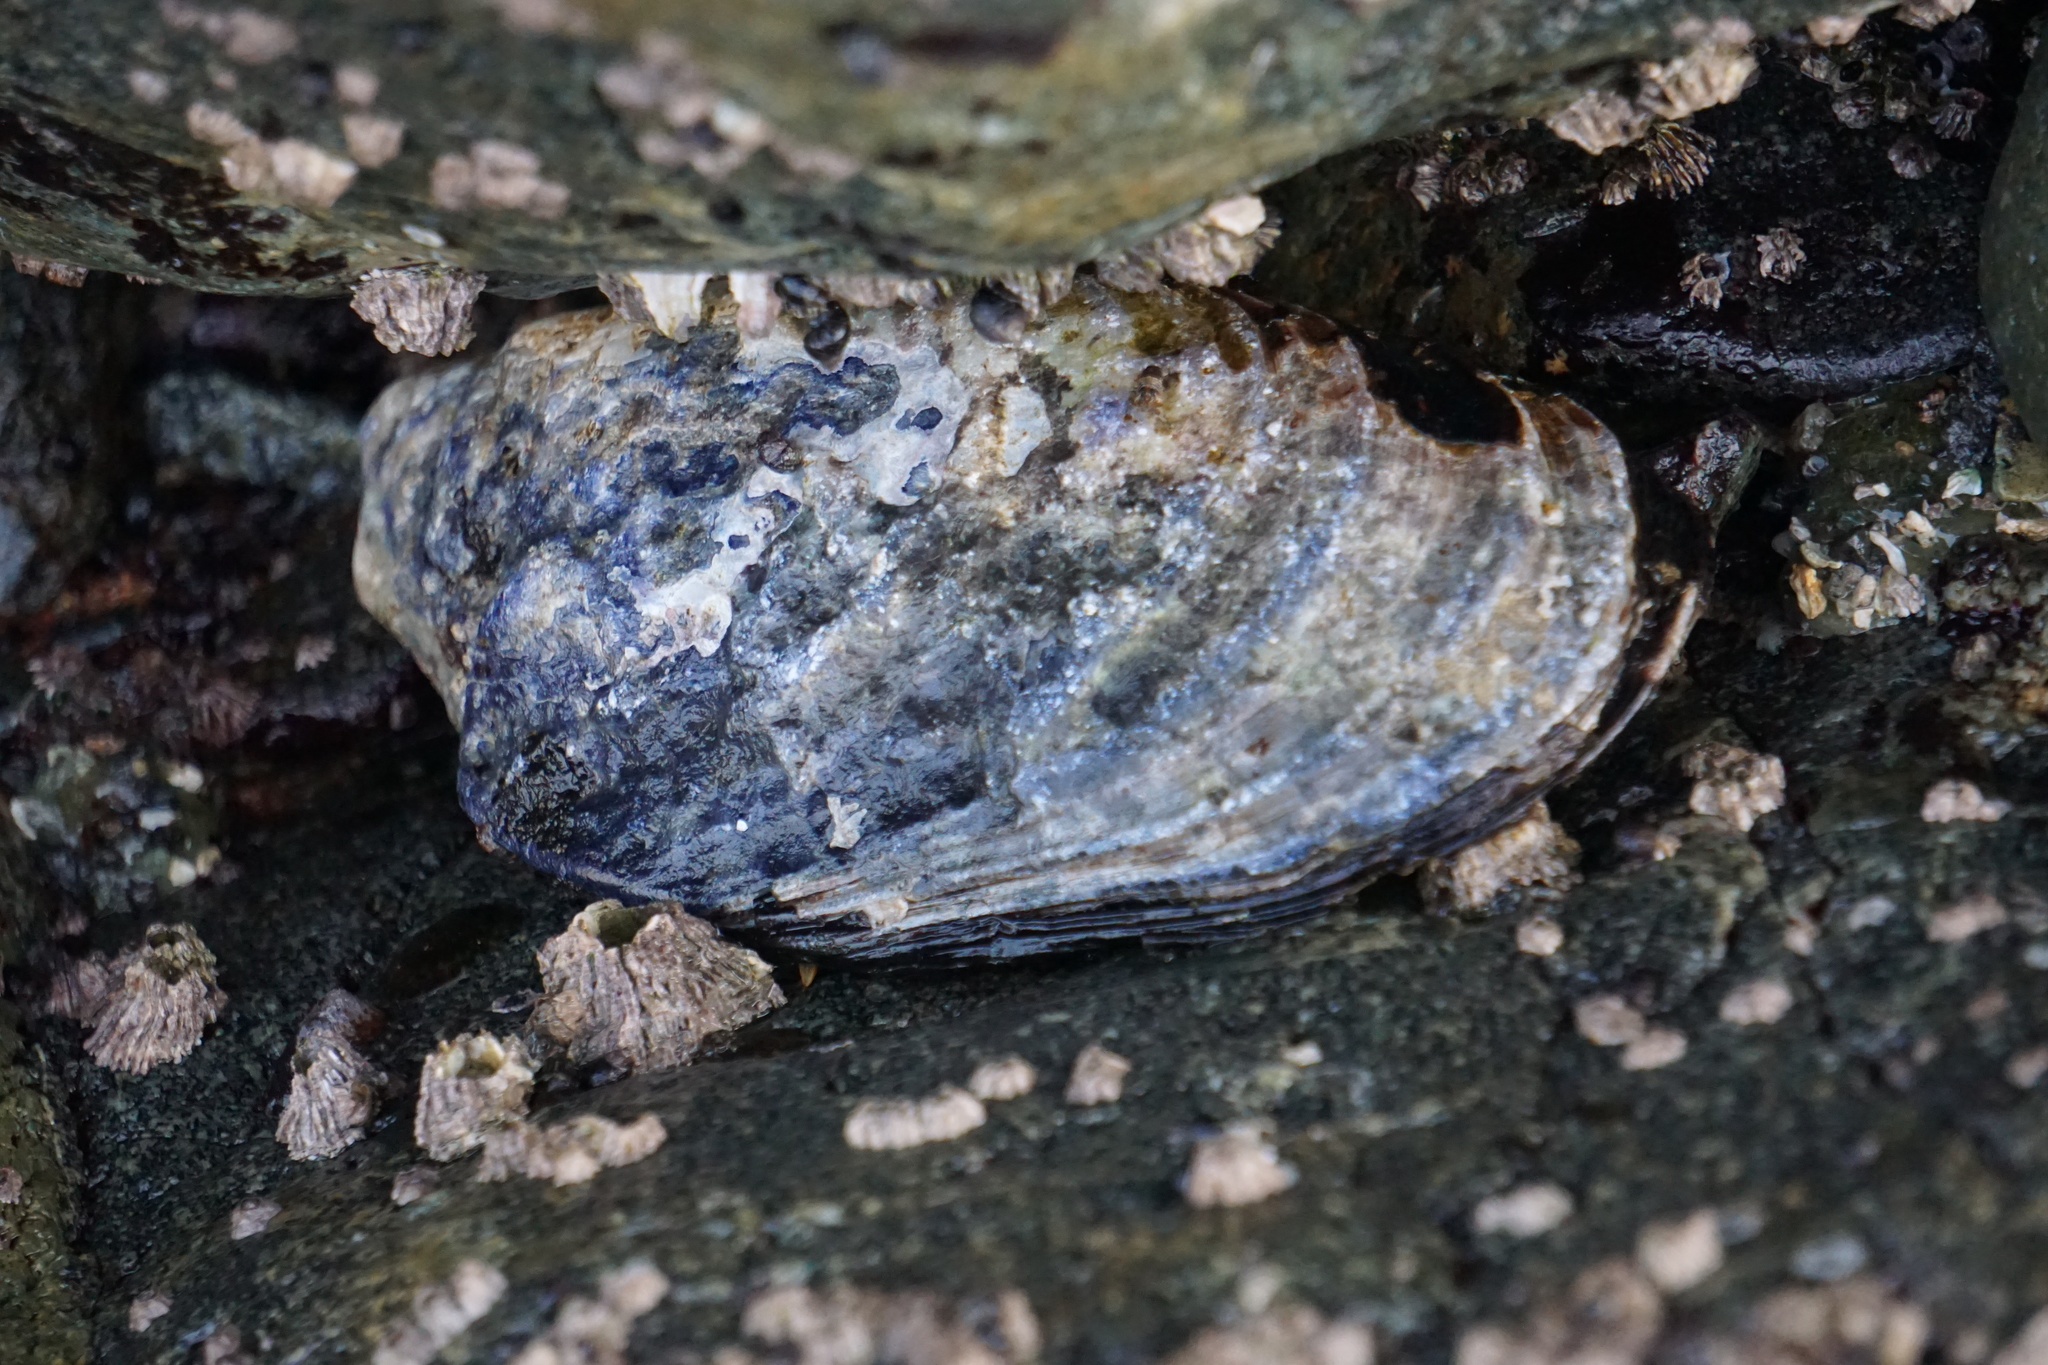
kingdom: Animalia
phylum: Mollusca
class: Bivalvia
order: Mytilida
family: Mytilidae
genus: Mytilus
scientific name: Mytilus californianus
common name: California mussel
